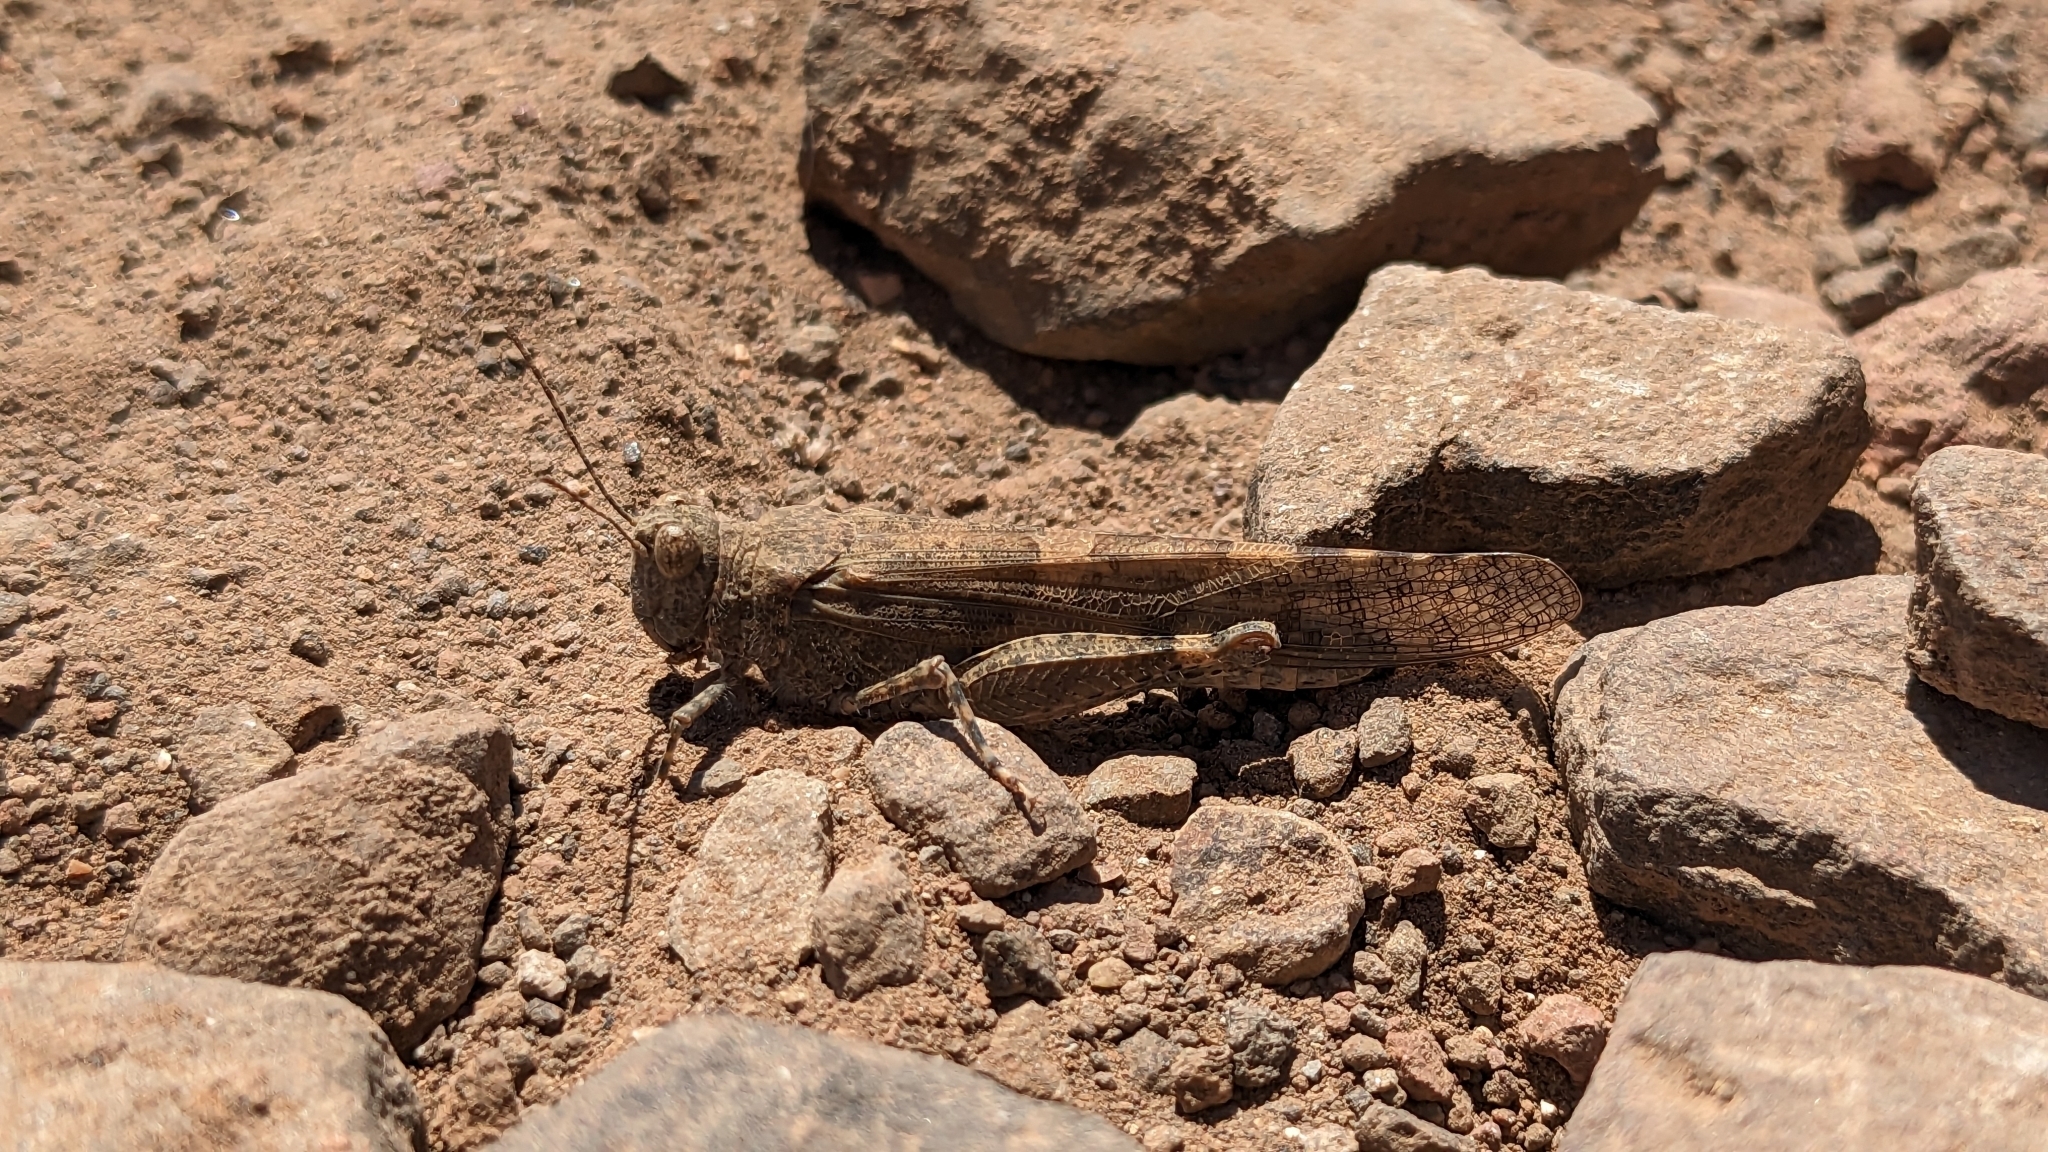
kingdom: Animalia
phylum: Arthropoda
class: Insecta
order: Orthoptera
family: Acrididae
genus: Sphingonotus
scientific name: Sphingonotus rubescens
